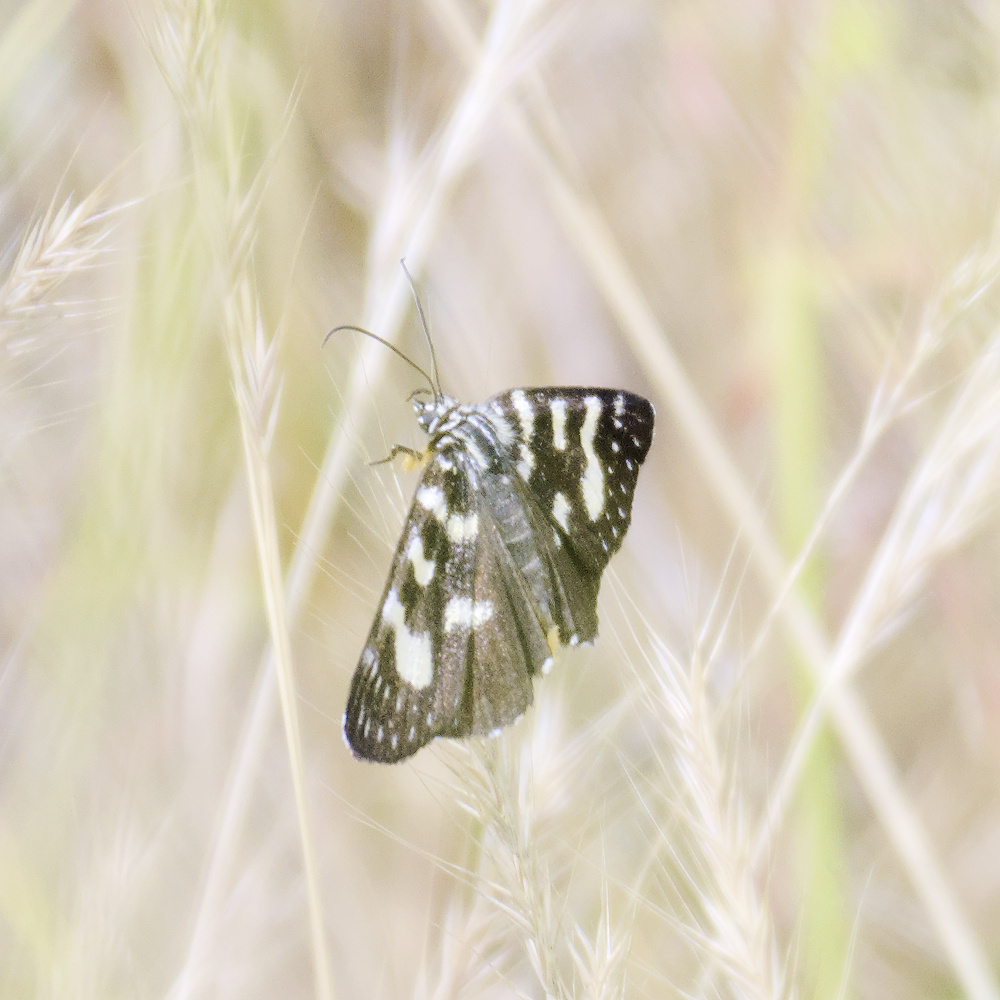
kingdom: Animalia
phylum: Arthropoda
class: Insecta
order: Lepidoptera
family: Noctuidae
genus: Phalaenoides
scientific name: Phalaenoides tristifica
